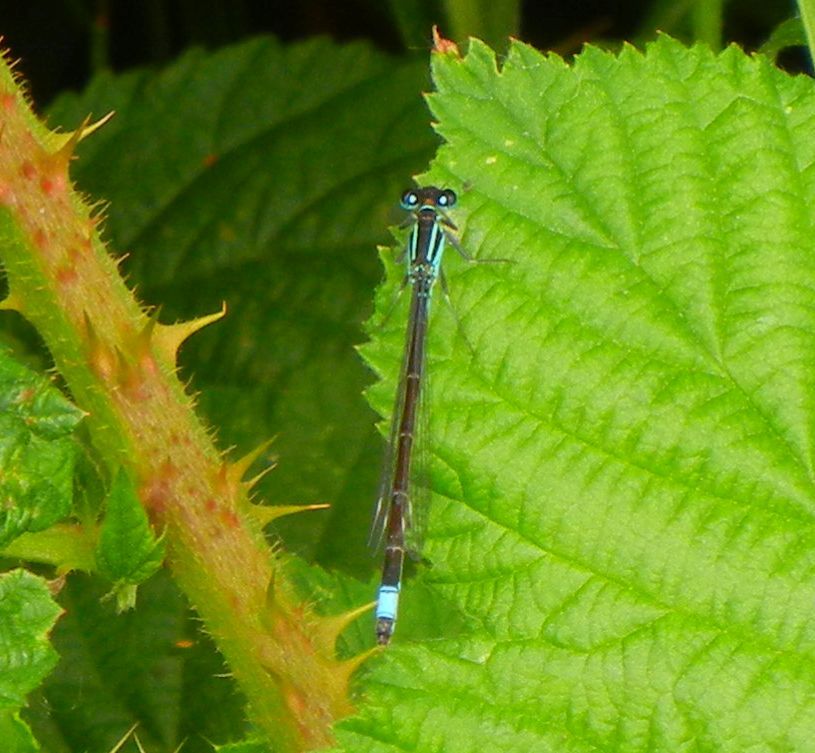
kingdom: Animalia
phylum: Arthropoda
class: Insecta
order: Odonata
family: Coenagrionidae
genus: Ischnura
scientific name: Ischnura elegans
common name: Blue-tailed damselfly
